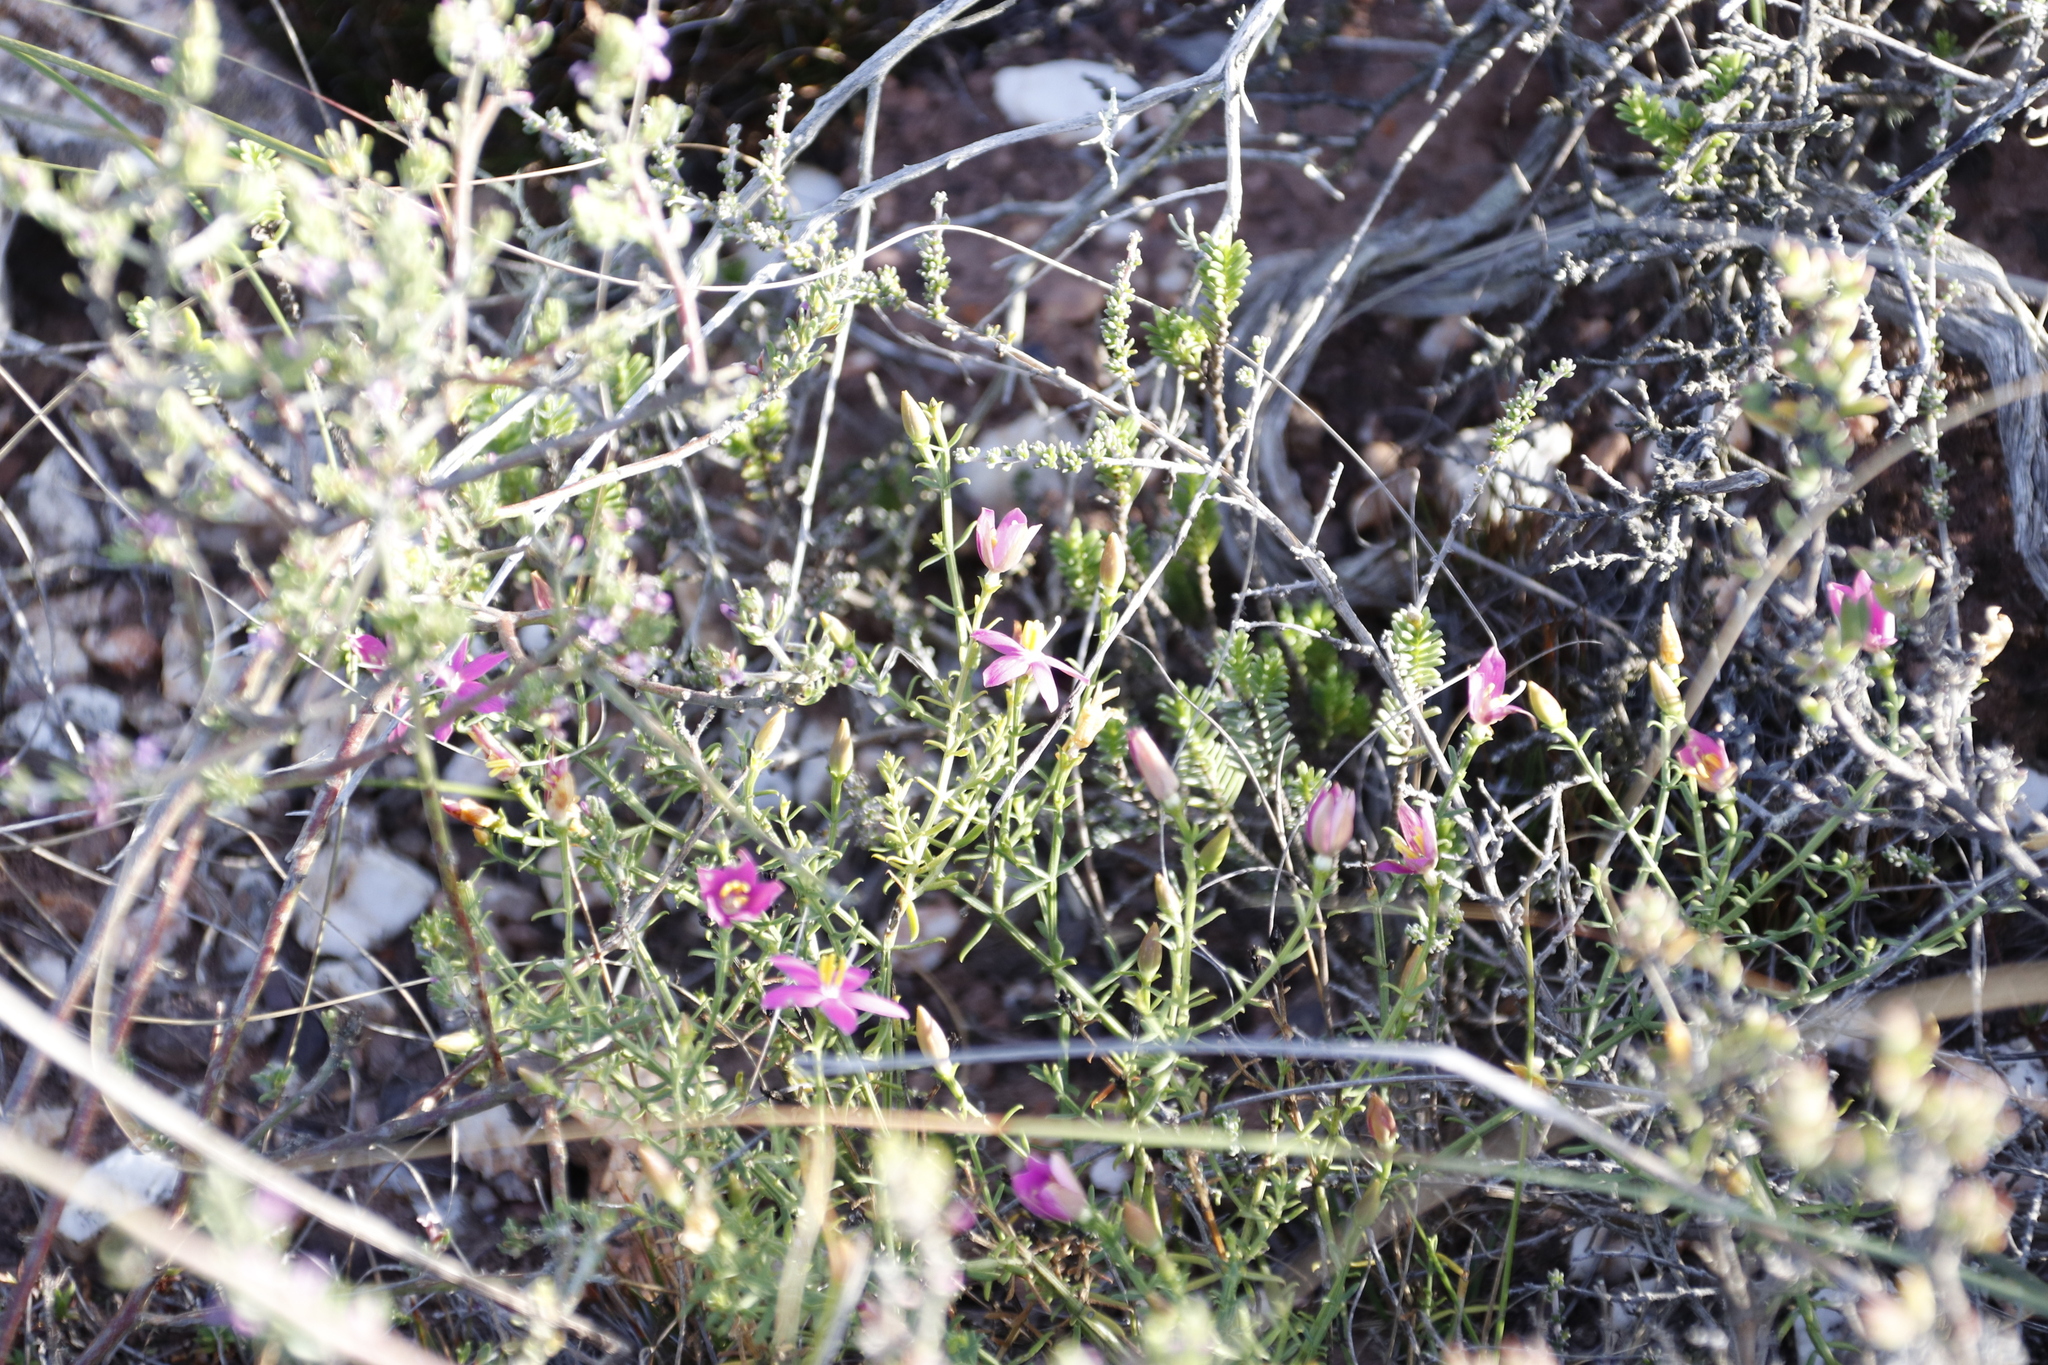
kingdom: Plantae
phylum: Tracheophyta
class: Magnoliopsida
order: Gentianales
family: Gentianaceae
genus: Chironia
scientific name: Chironia baccifera
